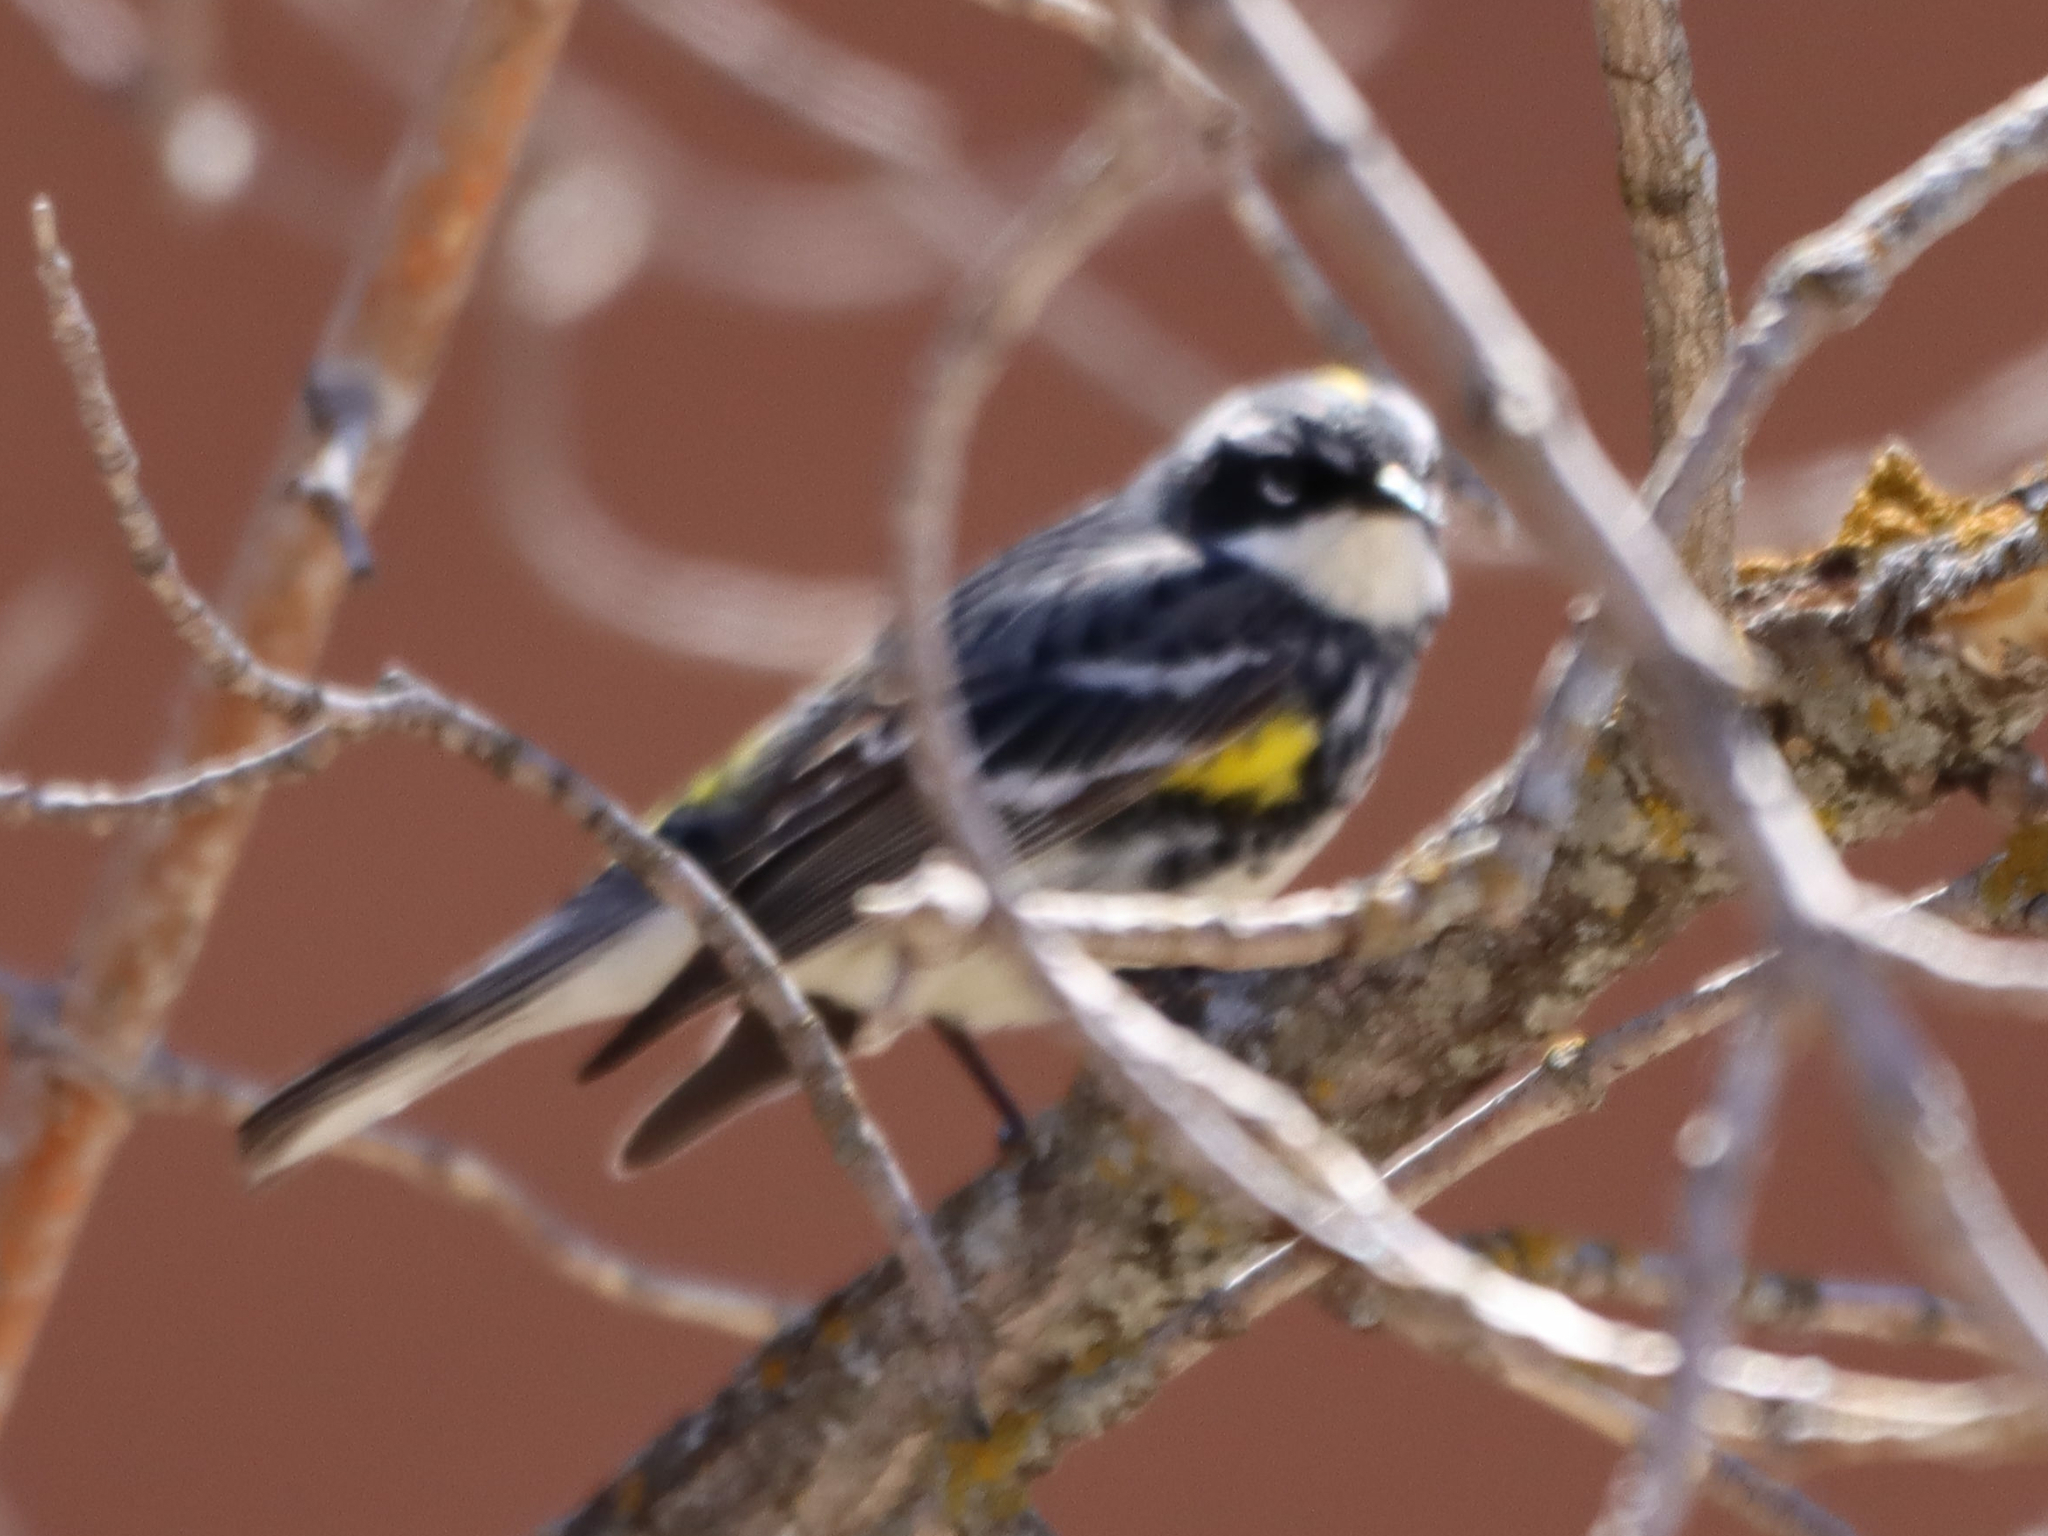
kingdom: Animalia
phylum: Chordata
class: Aves
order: Passeriformes
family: Parulidae
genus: Setophaga
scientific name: Setophaga coronata
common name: Myrtle warbler
